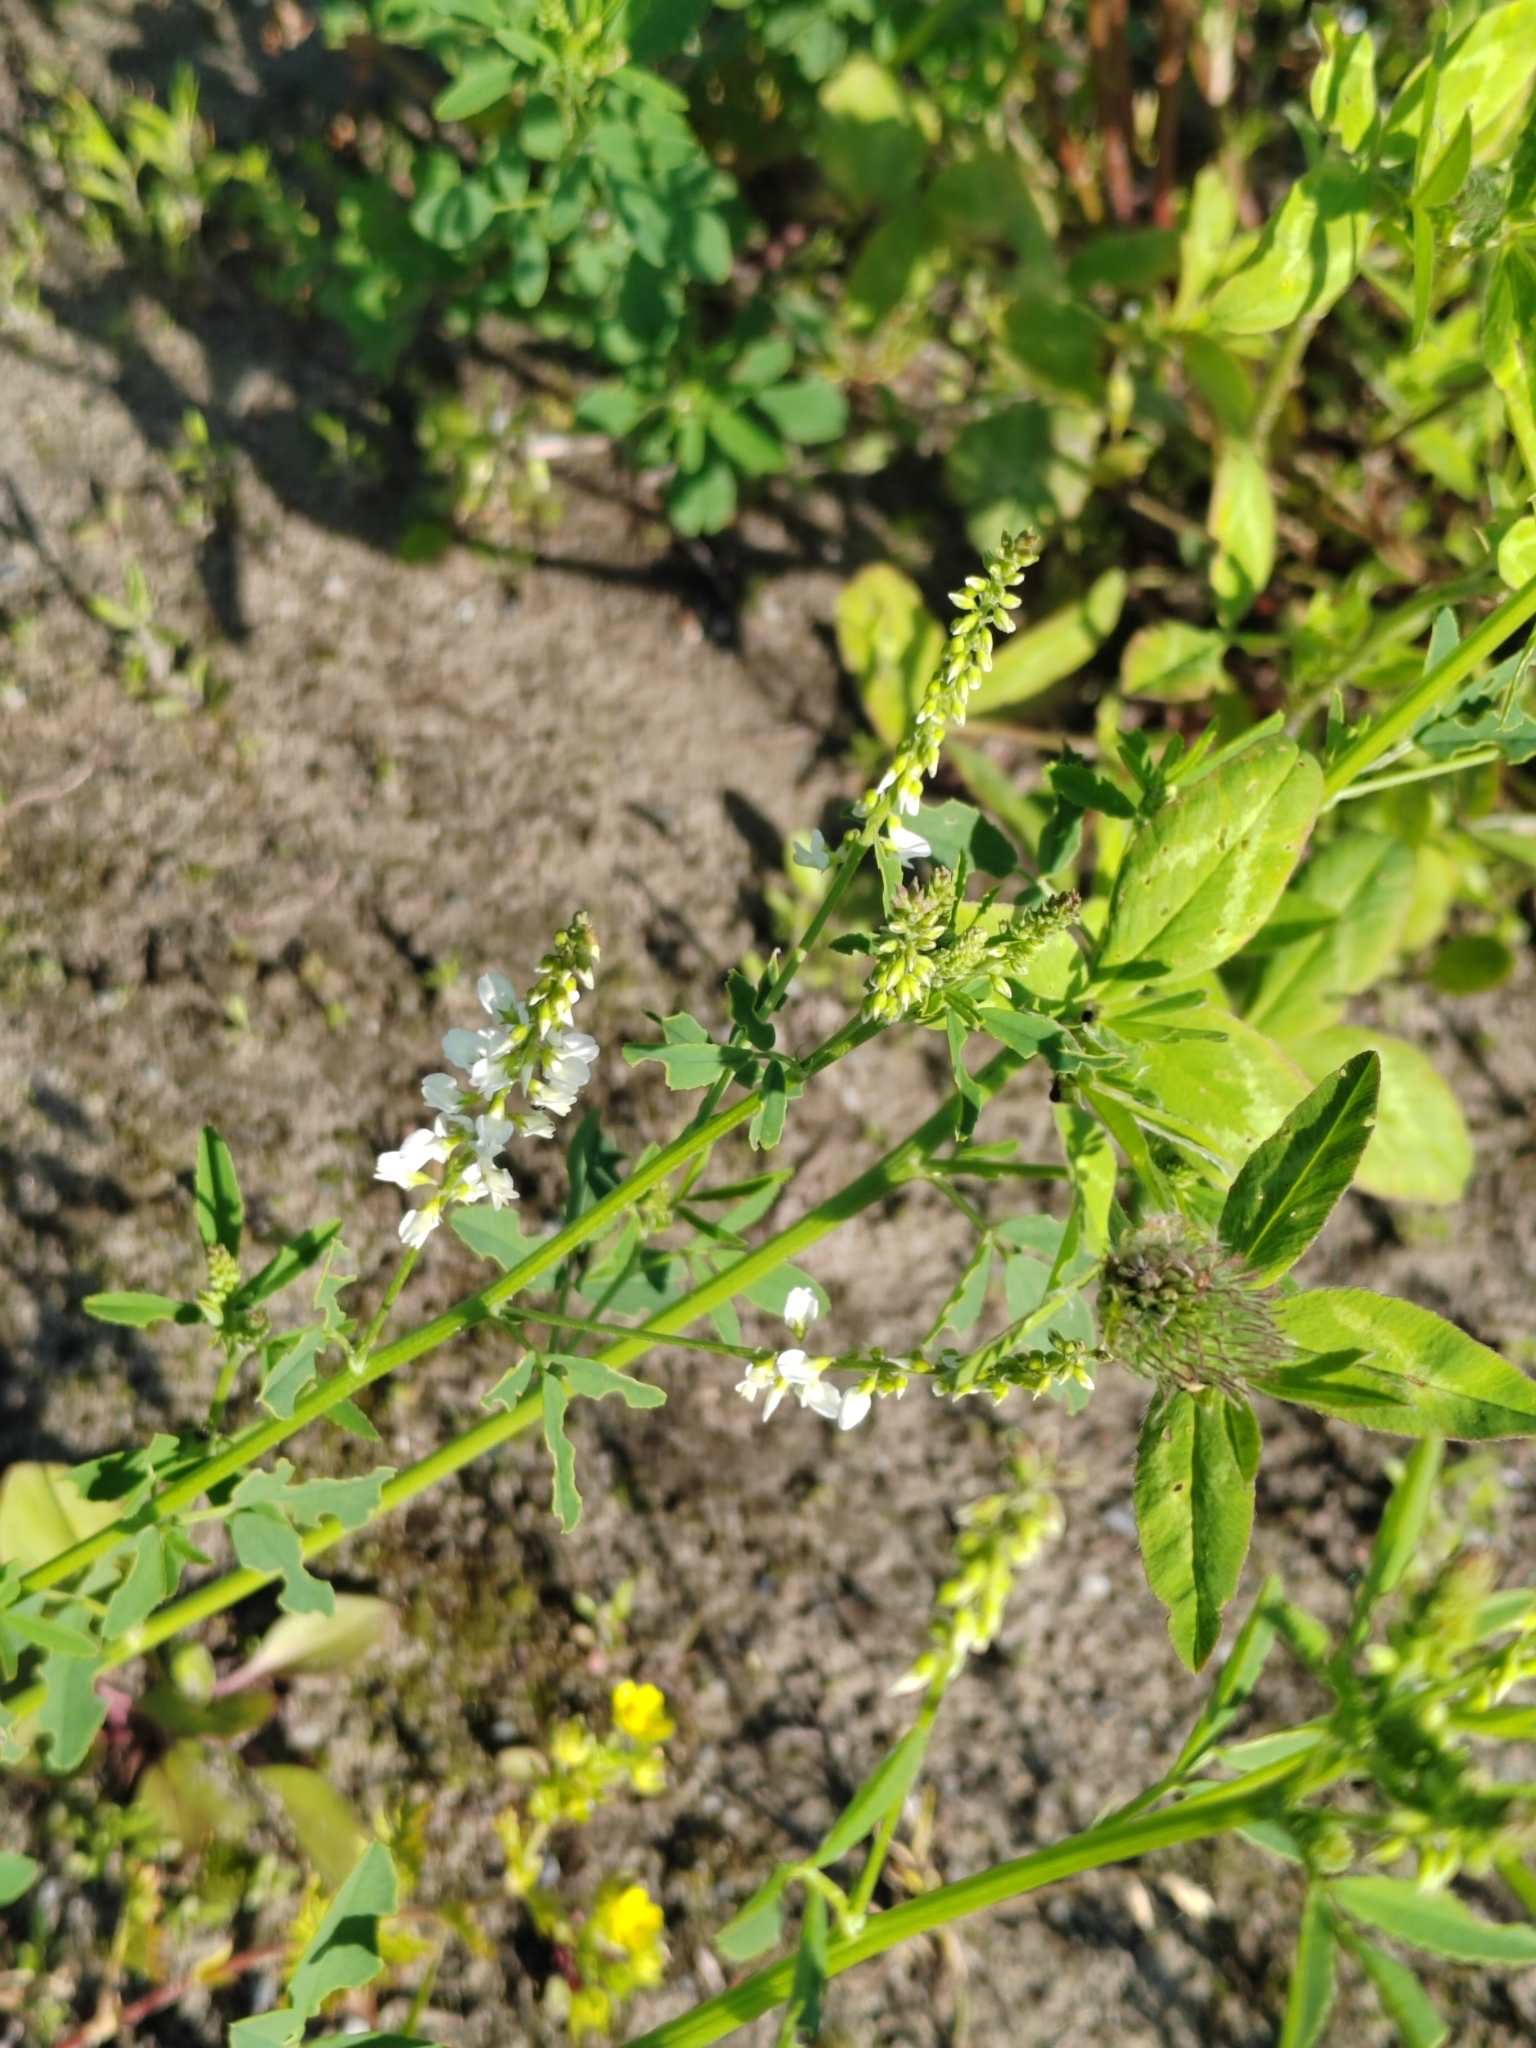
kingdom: Plantae
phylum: Tracheophyta
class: Magnoliopsida
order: Fabales
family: Fabaceae
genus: Melilotus
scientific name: Melilotus albus
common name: White melilot
